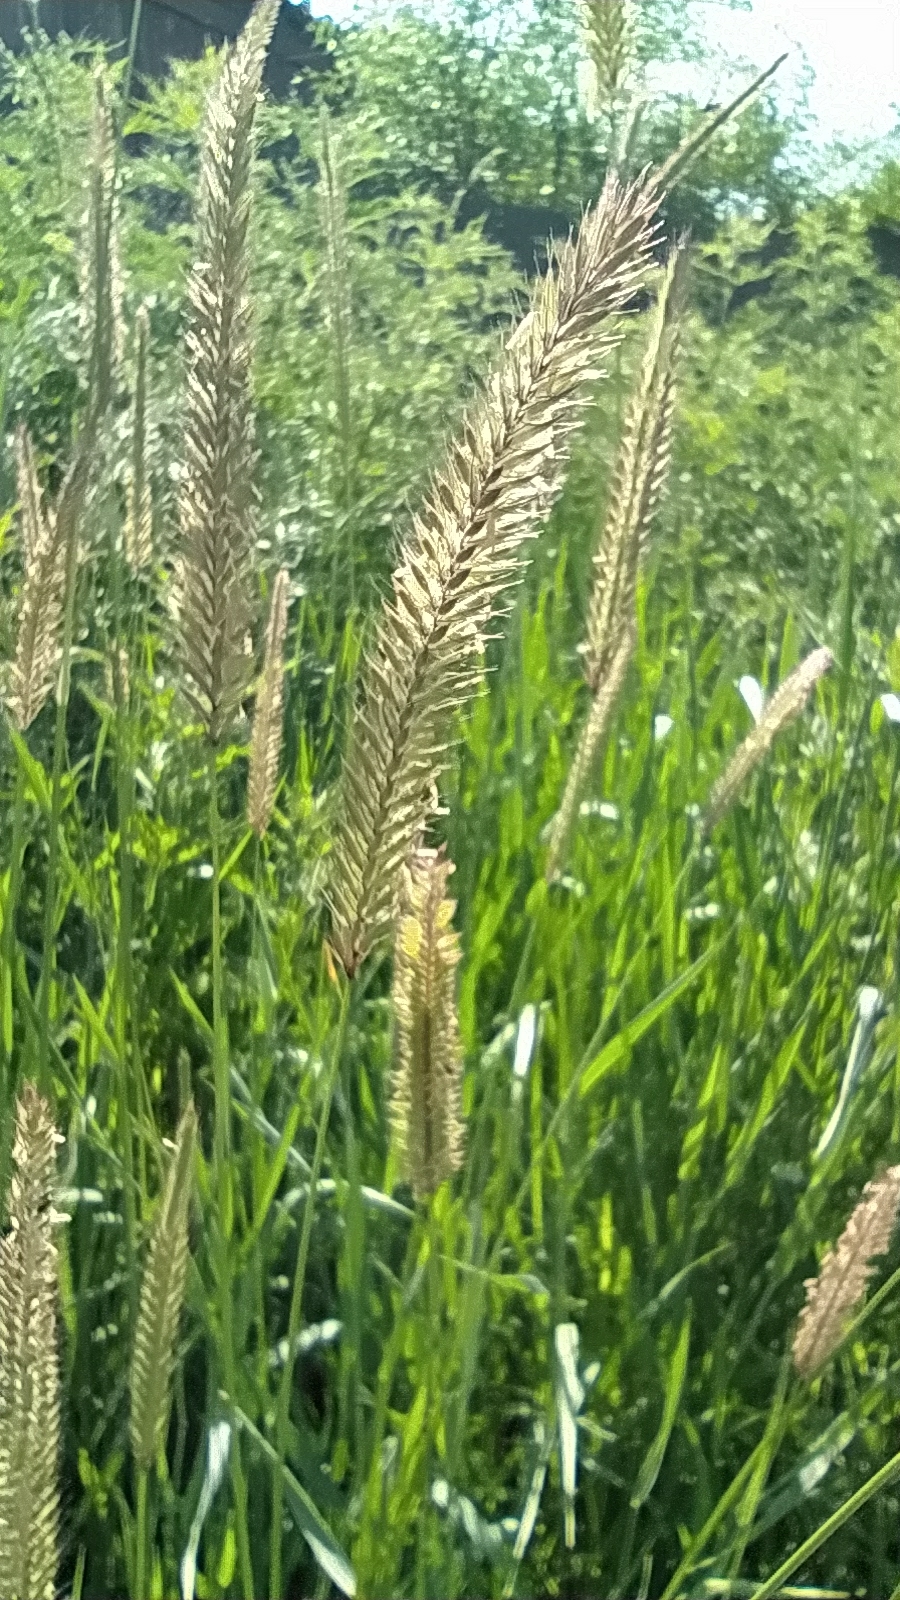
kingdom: Plantae
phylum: Tracheophyta
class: Liliopsida
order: Poales
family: Poaceae
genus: Agropyron
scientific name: Agropyron cristatum
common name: Crested wheatgrass
